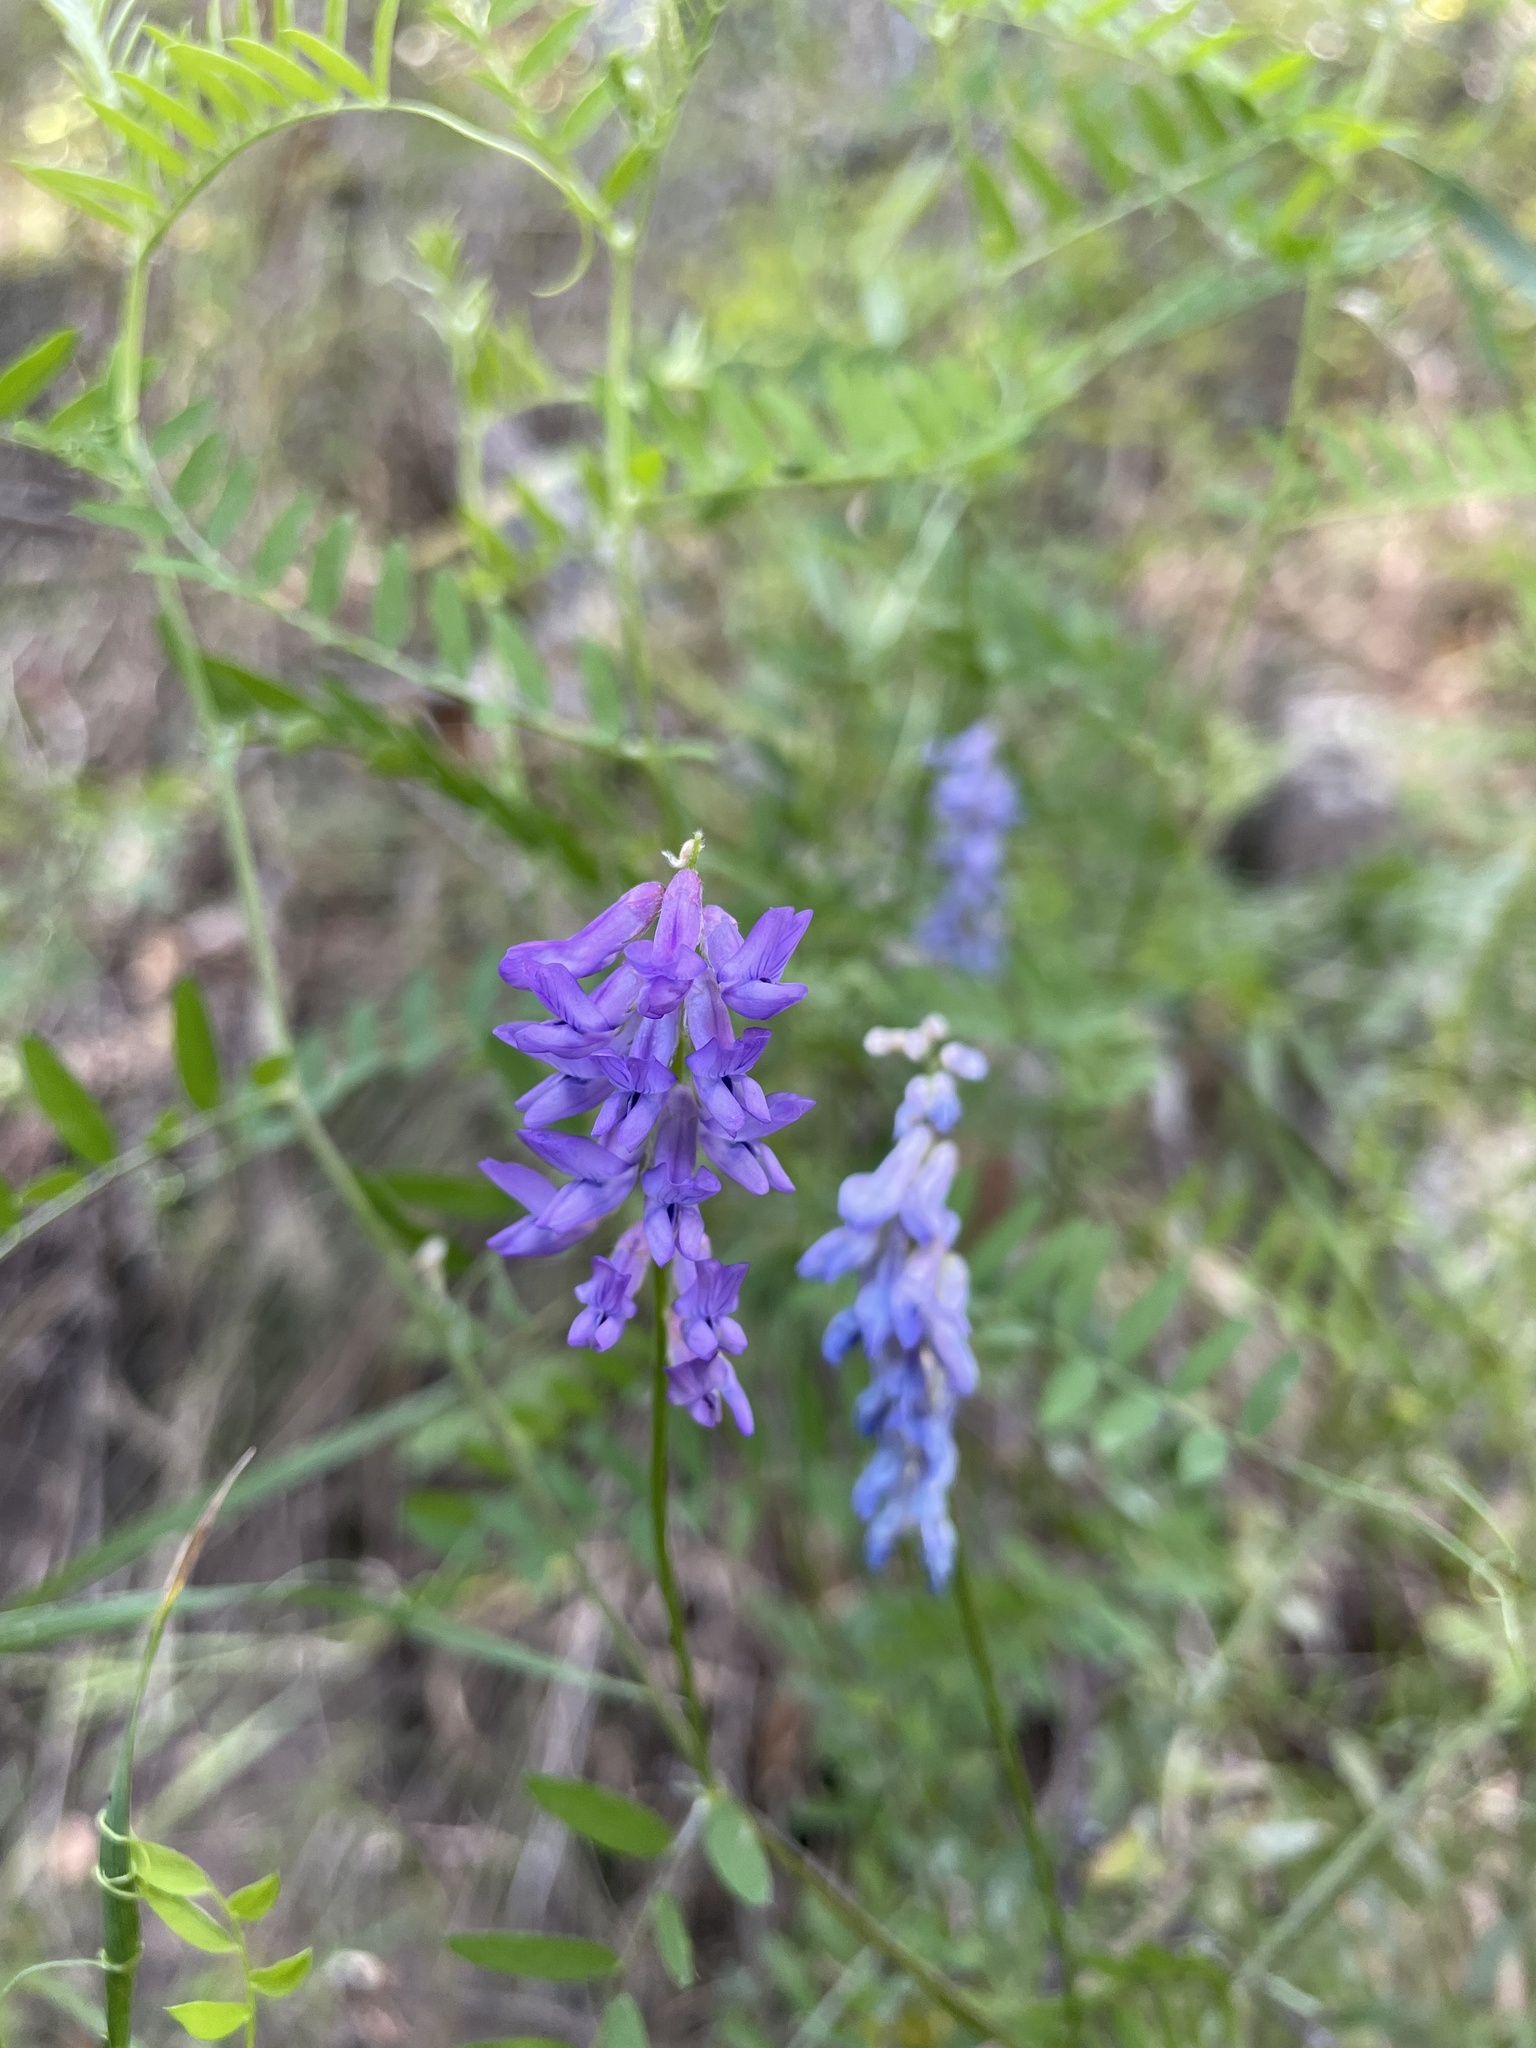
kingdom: Plantae
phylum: Tracheophyta
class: Magnoliopsida
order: Fabales
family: Fabaceae
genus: Vicia
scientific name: Vicia cracca
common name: Bird vetch
